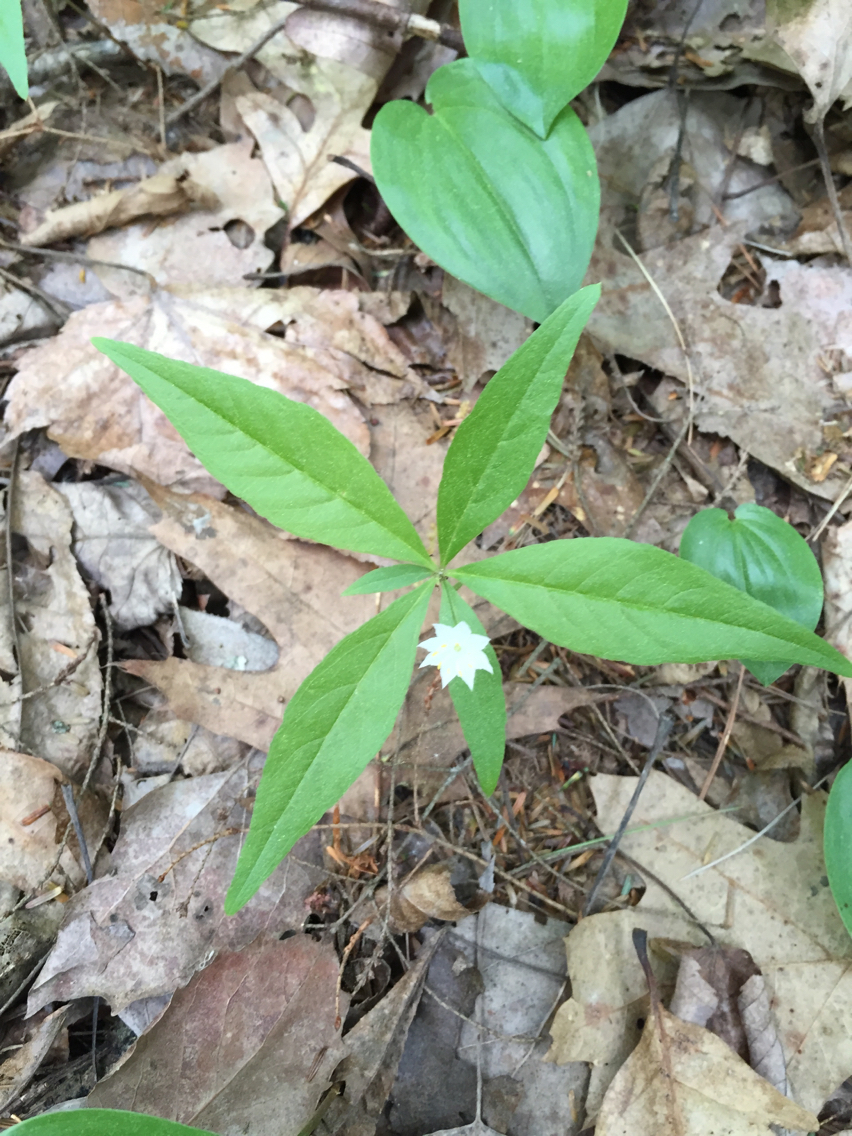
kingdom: Plantae
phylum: Tracheophyta
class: Magnoliopsida
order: Ericales
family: Primulaceae
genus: Lysimachia
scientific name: Lysimachia borealis
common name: American starflower
